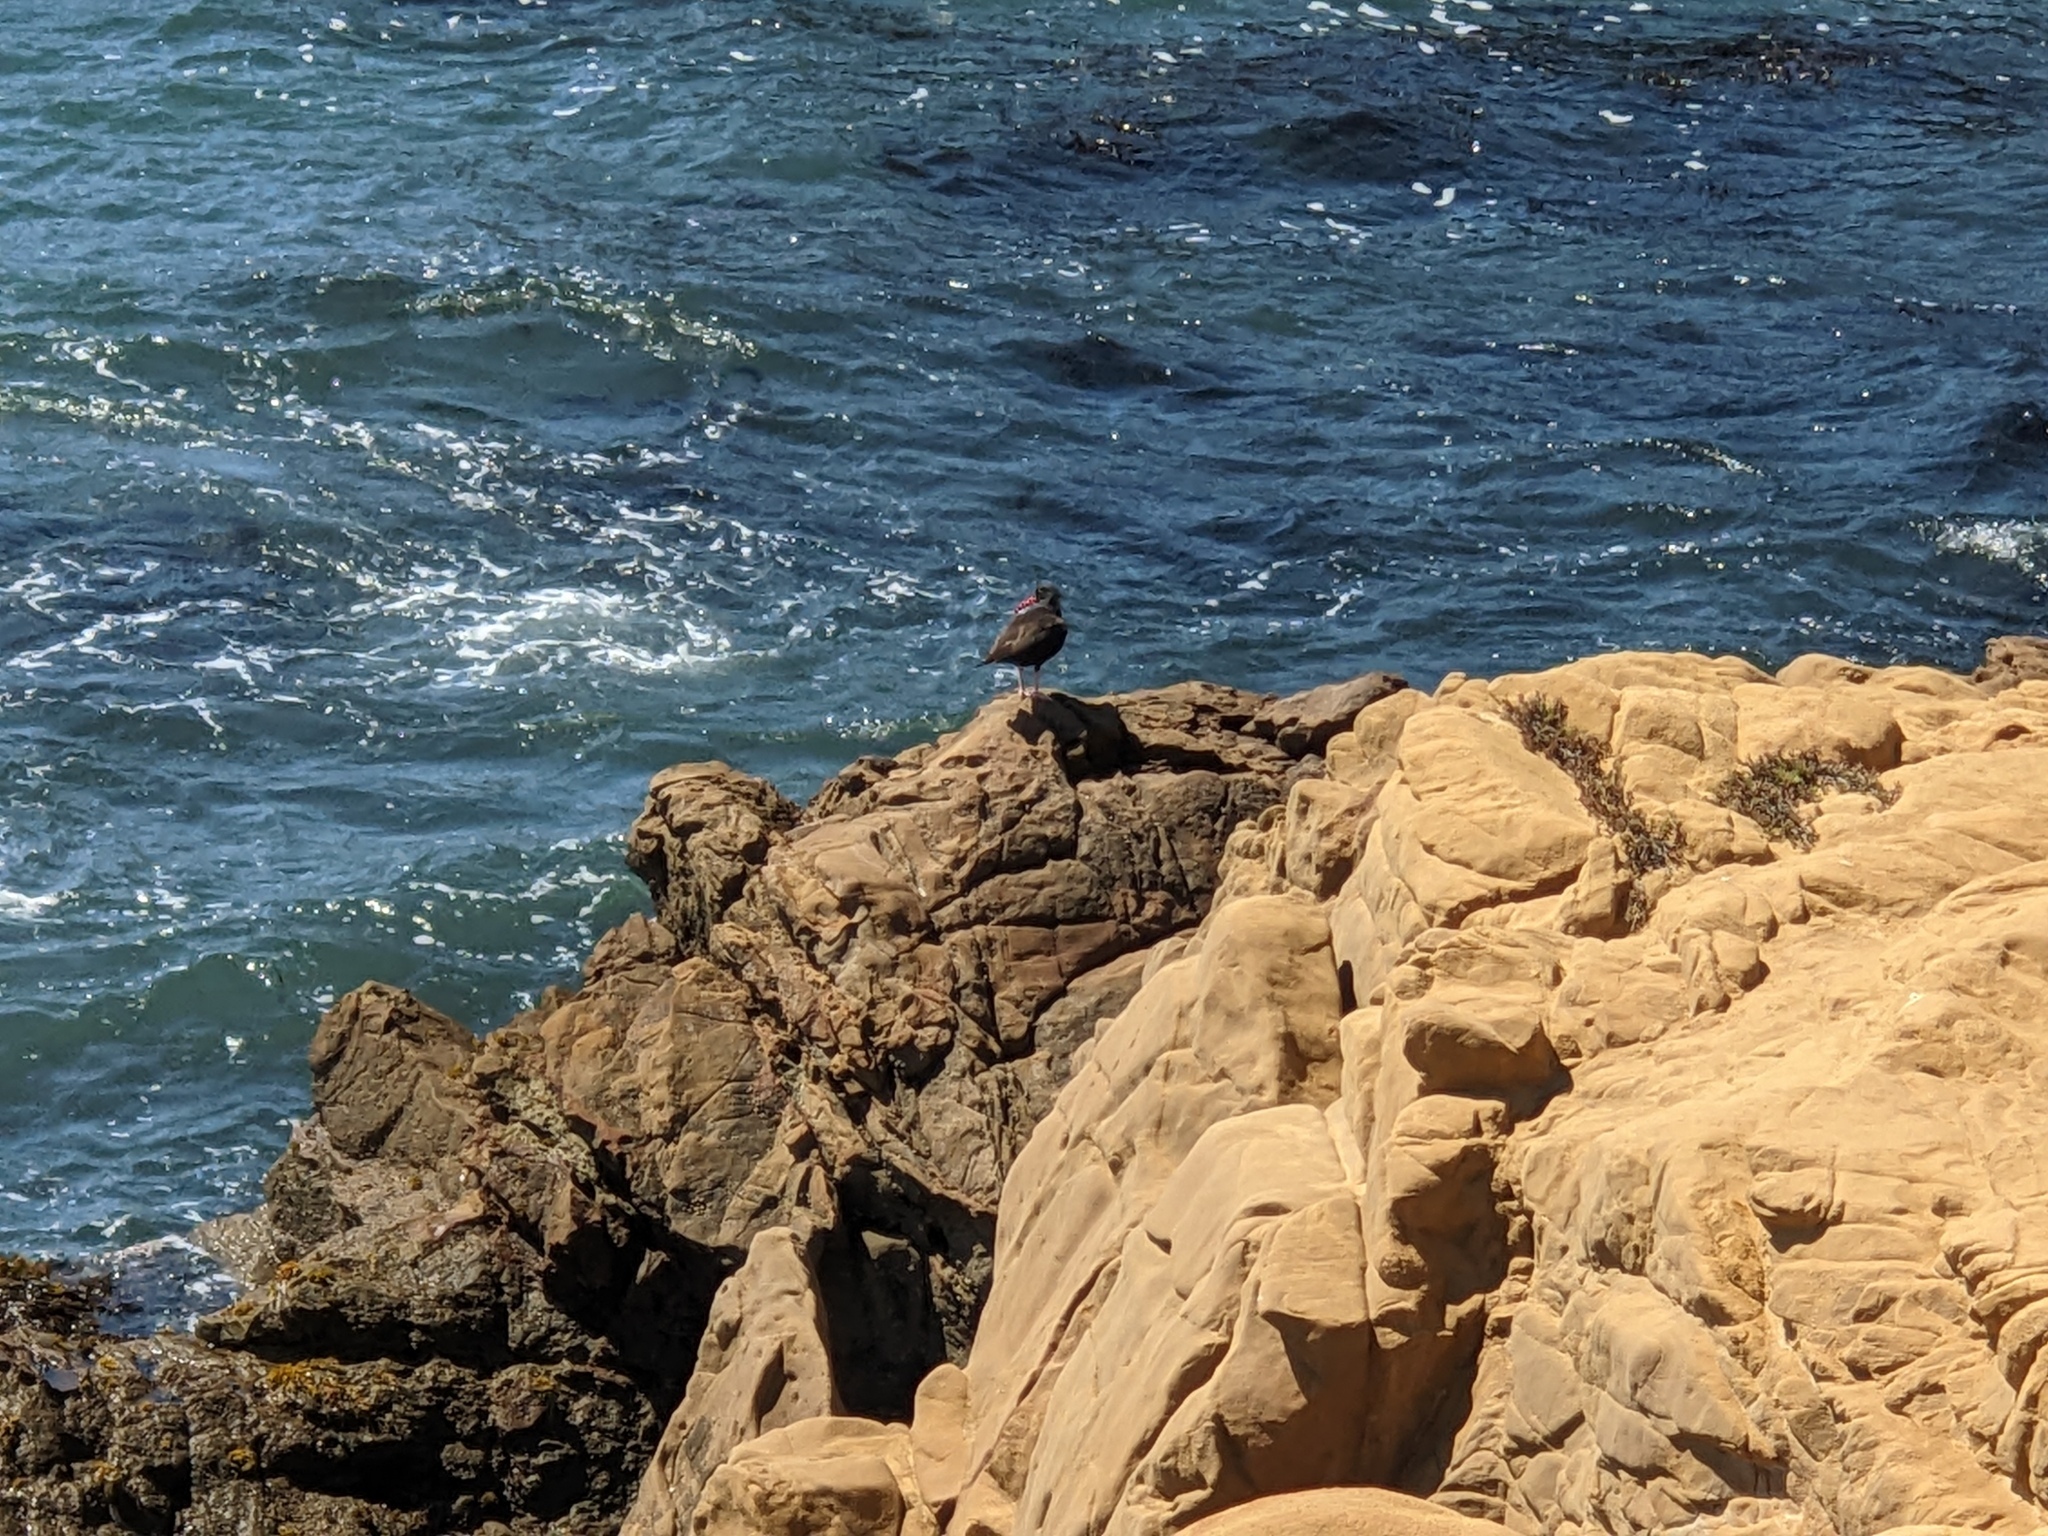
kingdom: Animalia
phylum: Chordata
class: Aves
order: Charadriiformes
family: Haematopodidae
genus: Haematopus
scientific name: Haematopus bachmani
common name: Black oystercatcher
